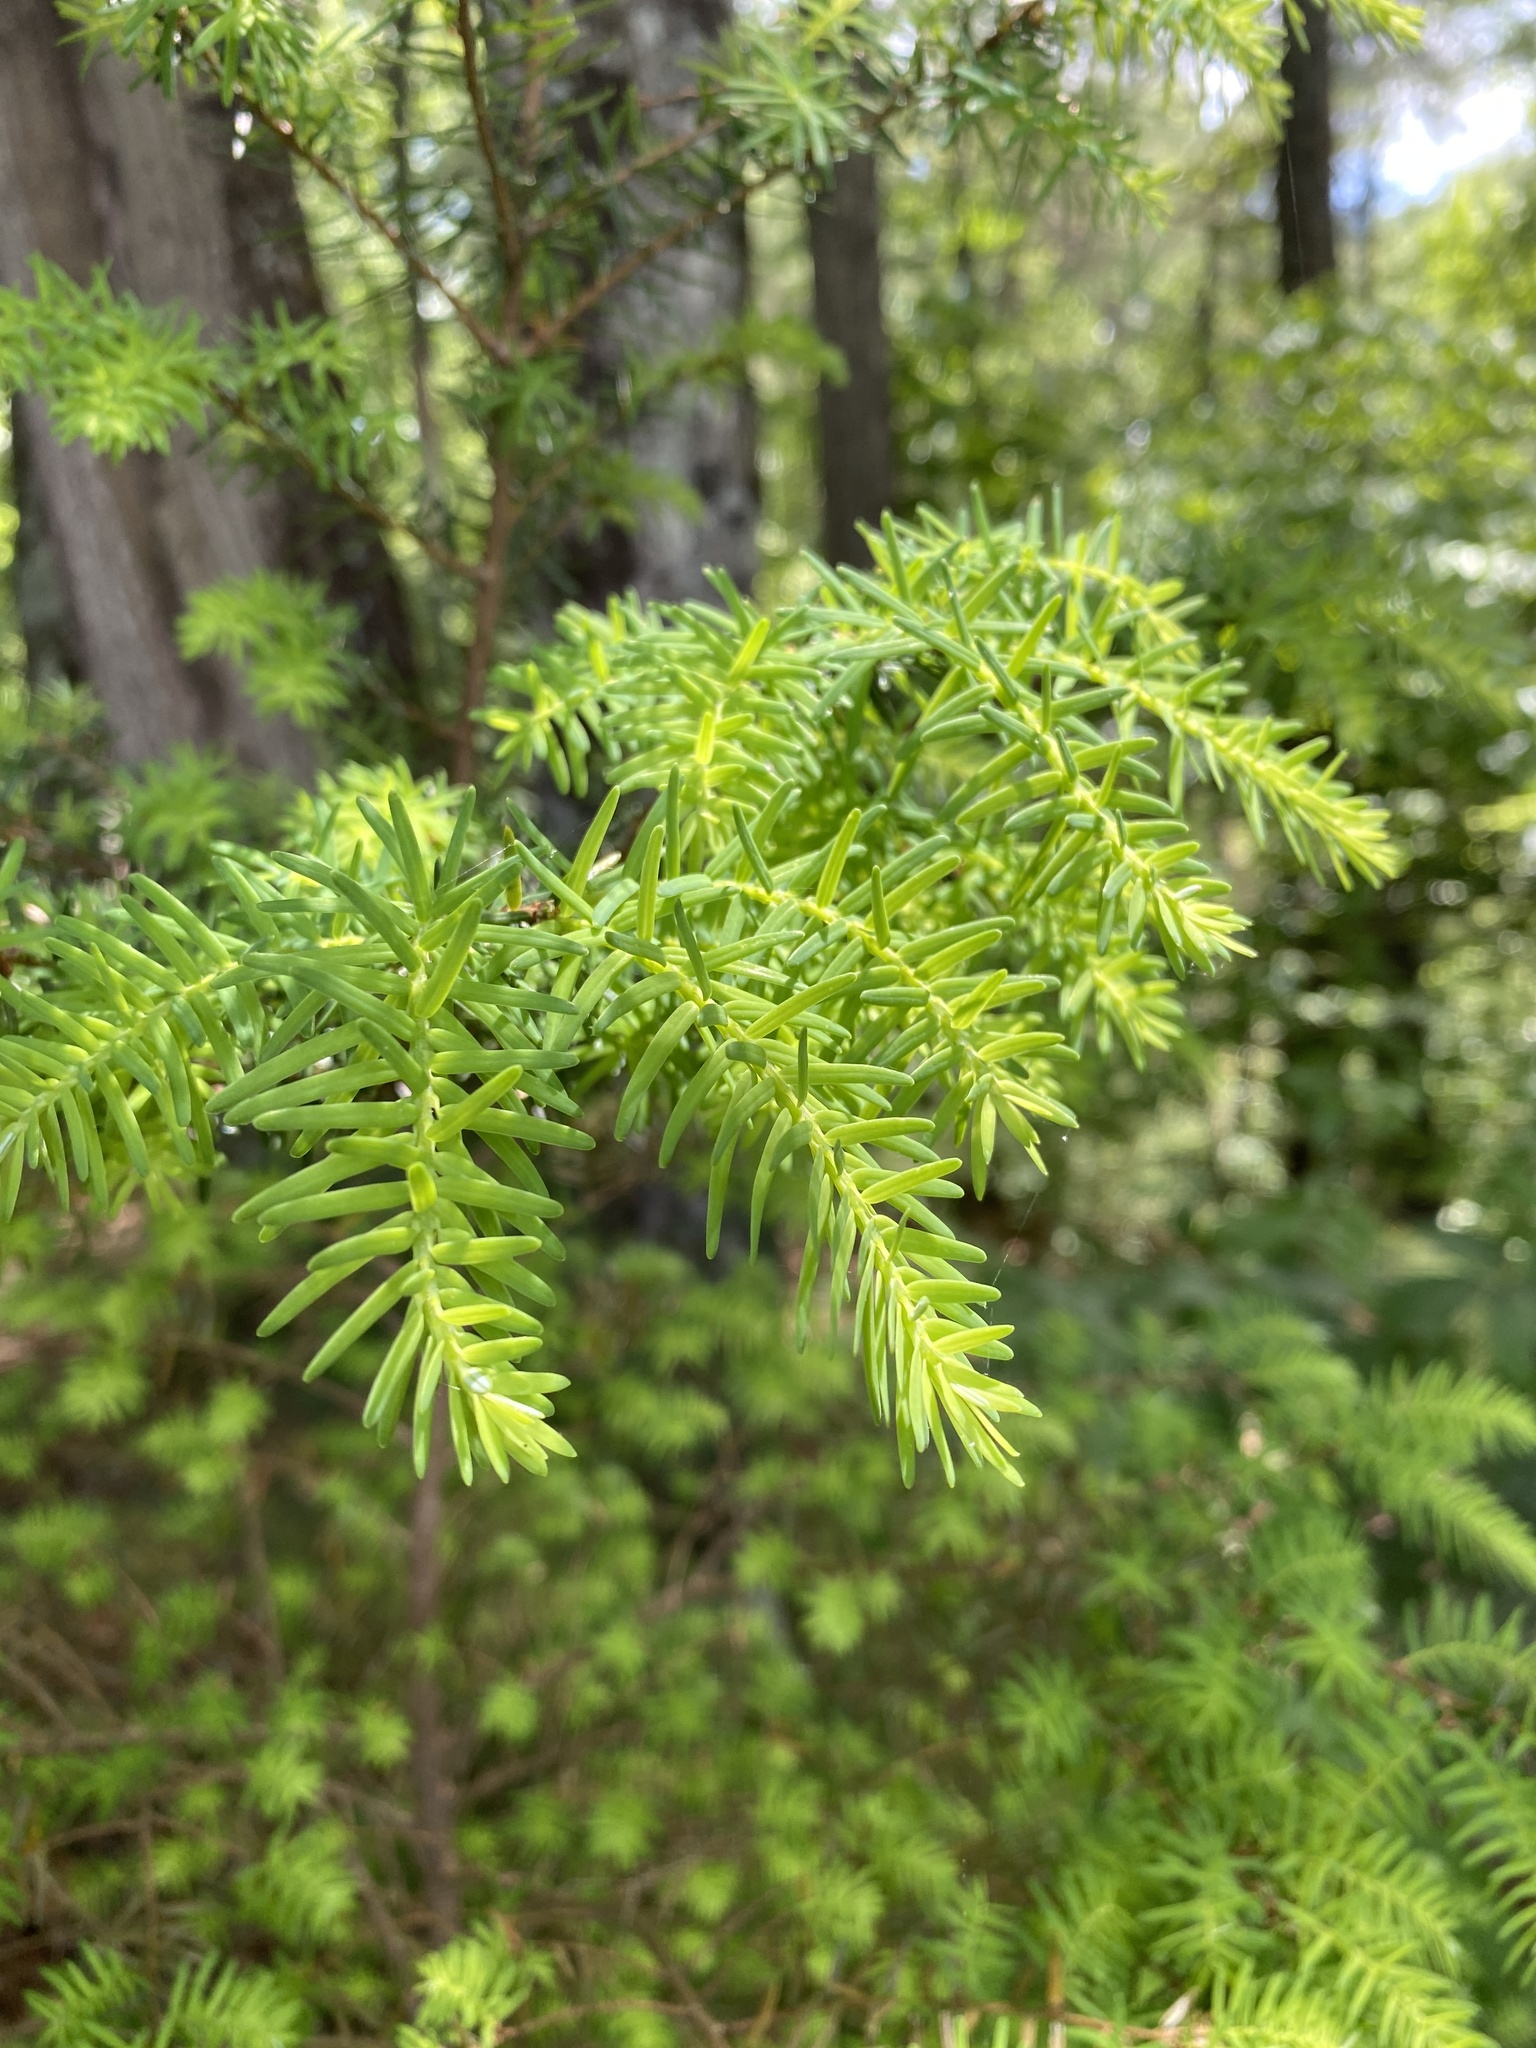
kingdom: Plantae
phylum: Tracheophyta
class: Pinopsida
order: Pinales
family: Pinaceae
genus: Tsuga
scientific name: Tsuga caroliniana
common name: Carolina hemlock
